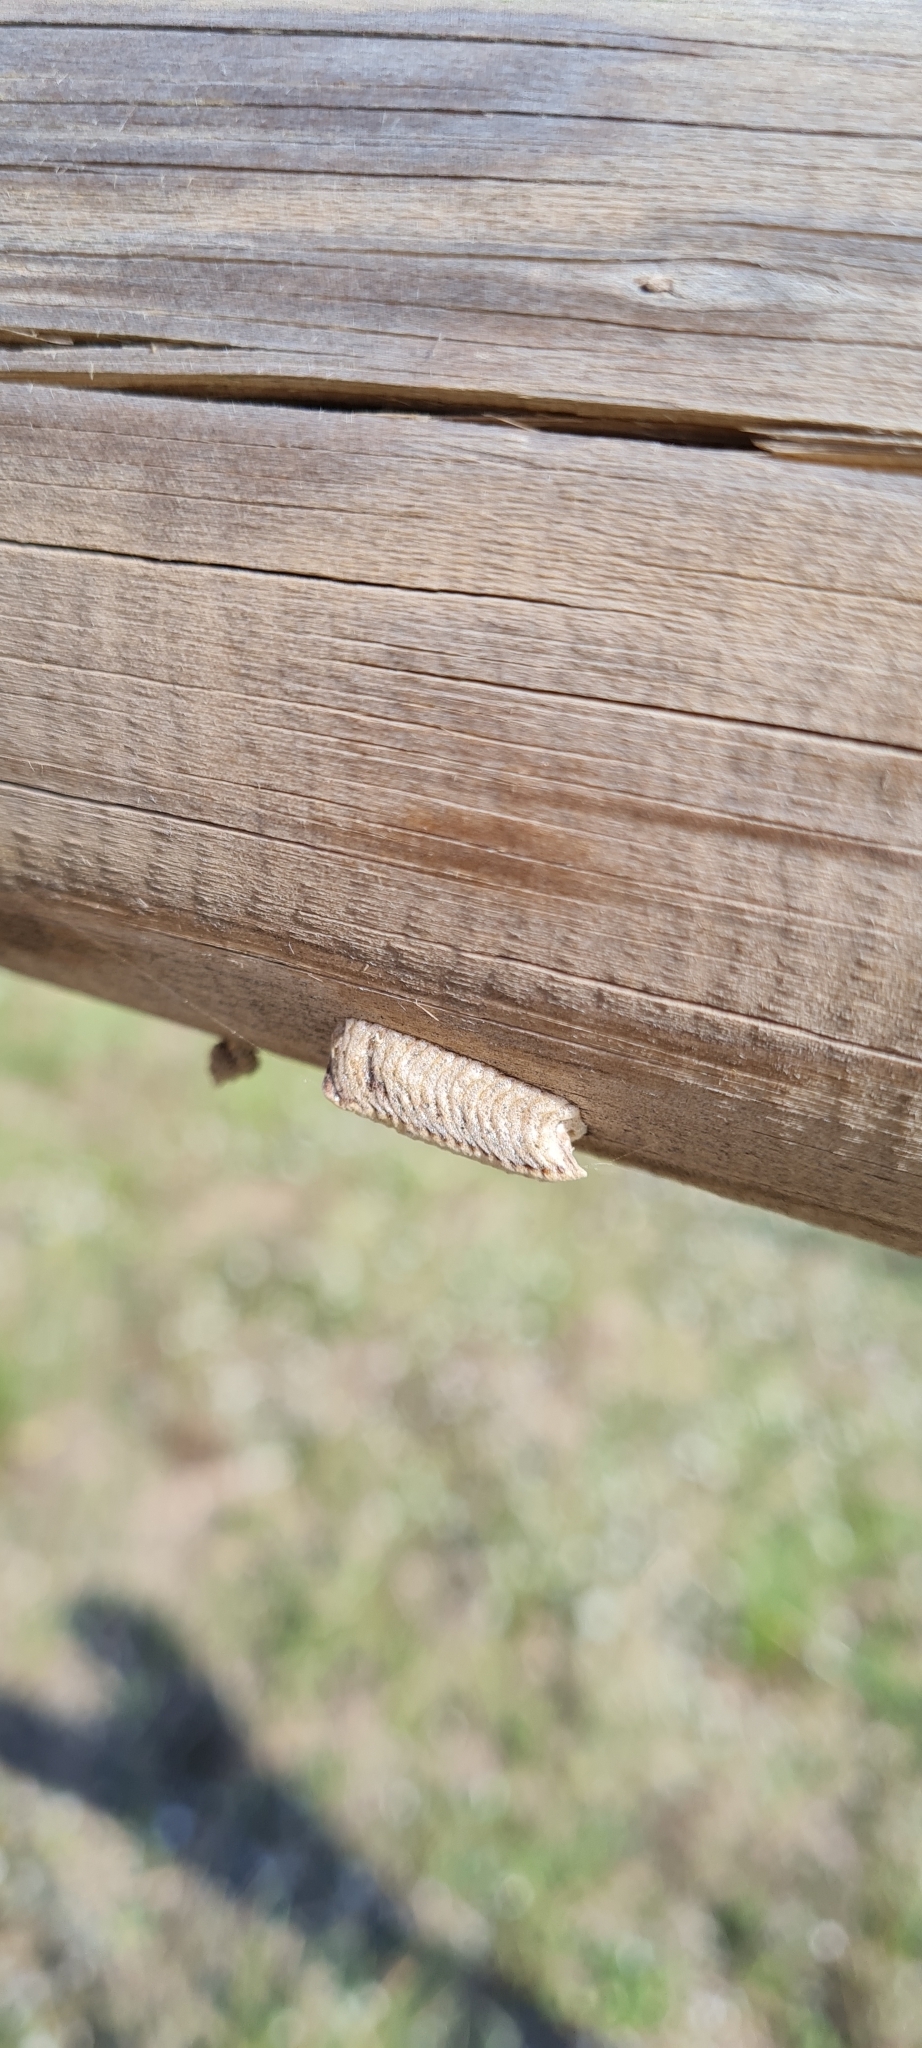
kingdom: Animalia
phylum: Arthropoda
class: Insecta
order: Mantodea
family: Eremiaphilidae
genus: Iris
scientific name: Iris oratoria
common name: Mediterranean mantis
